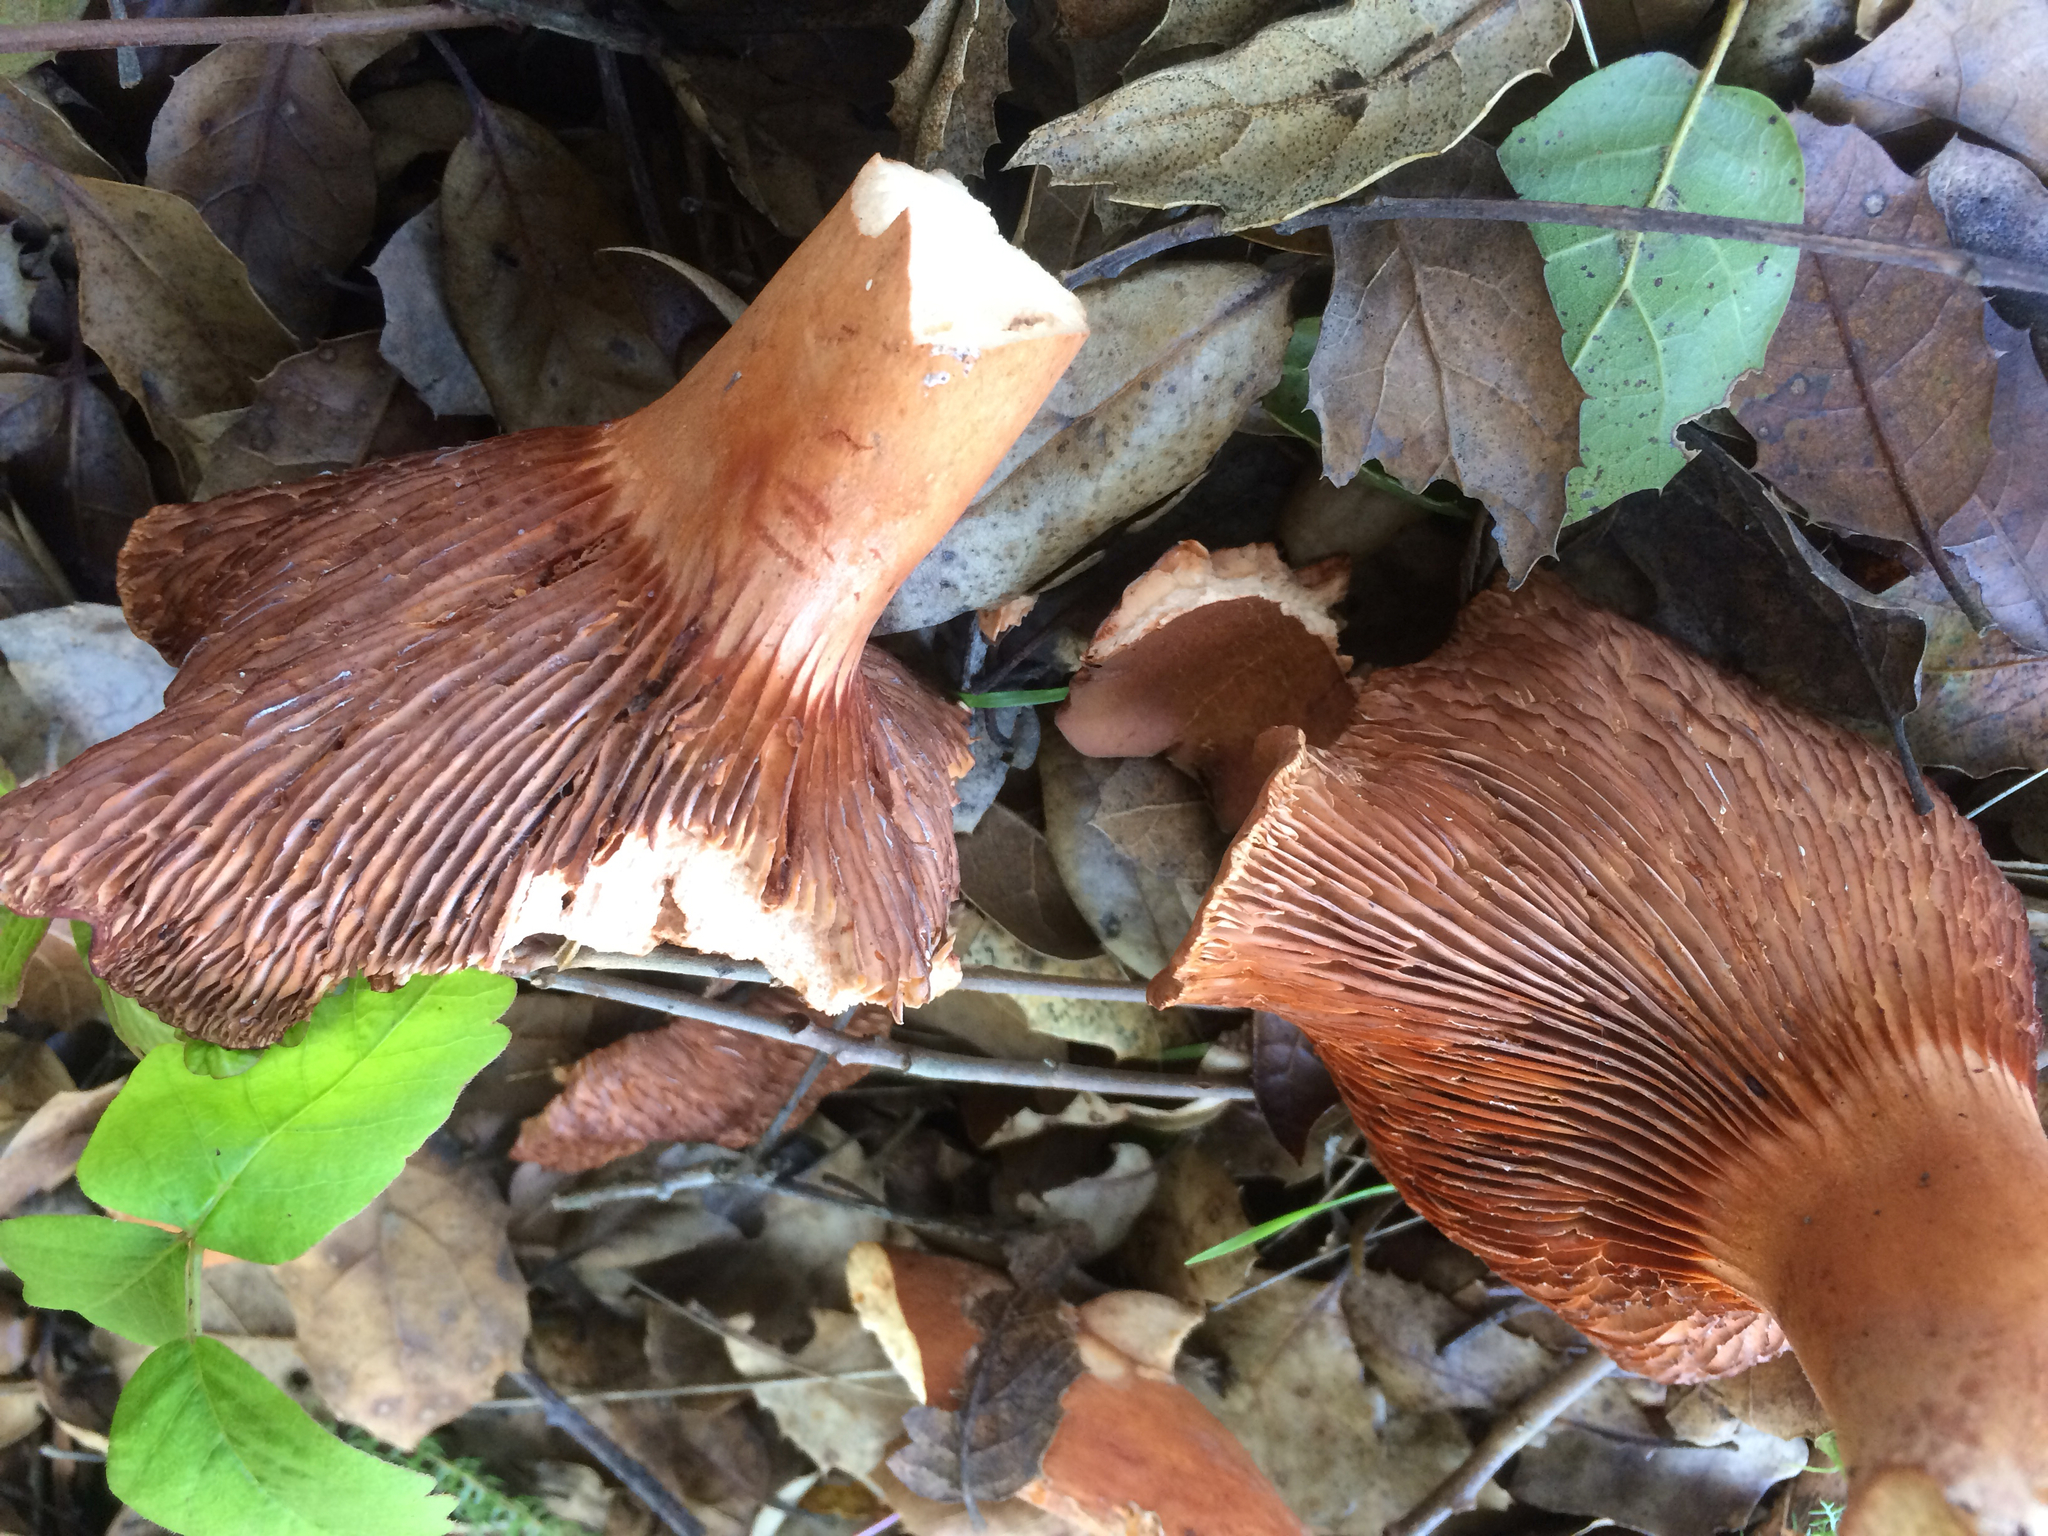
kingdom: Fungi
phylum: Basidiomycota
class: Agaricomycetes
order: Russulales
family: Russulaceae
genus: Lactarius
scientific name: Lactarius rufulus
